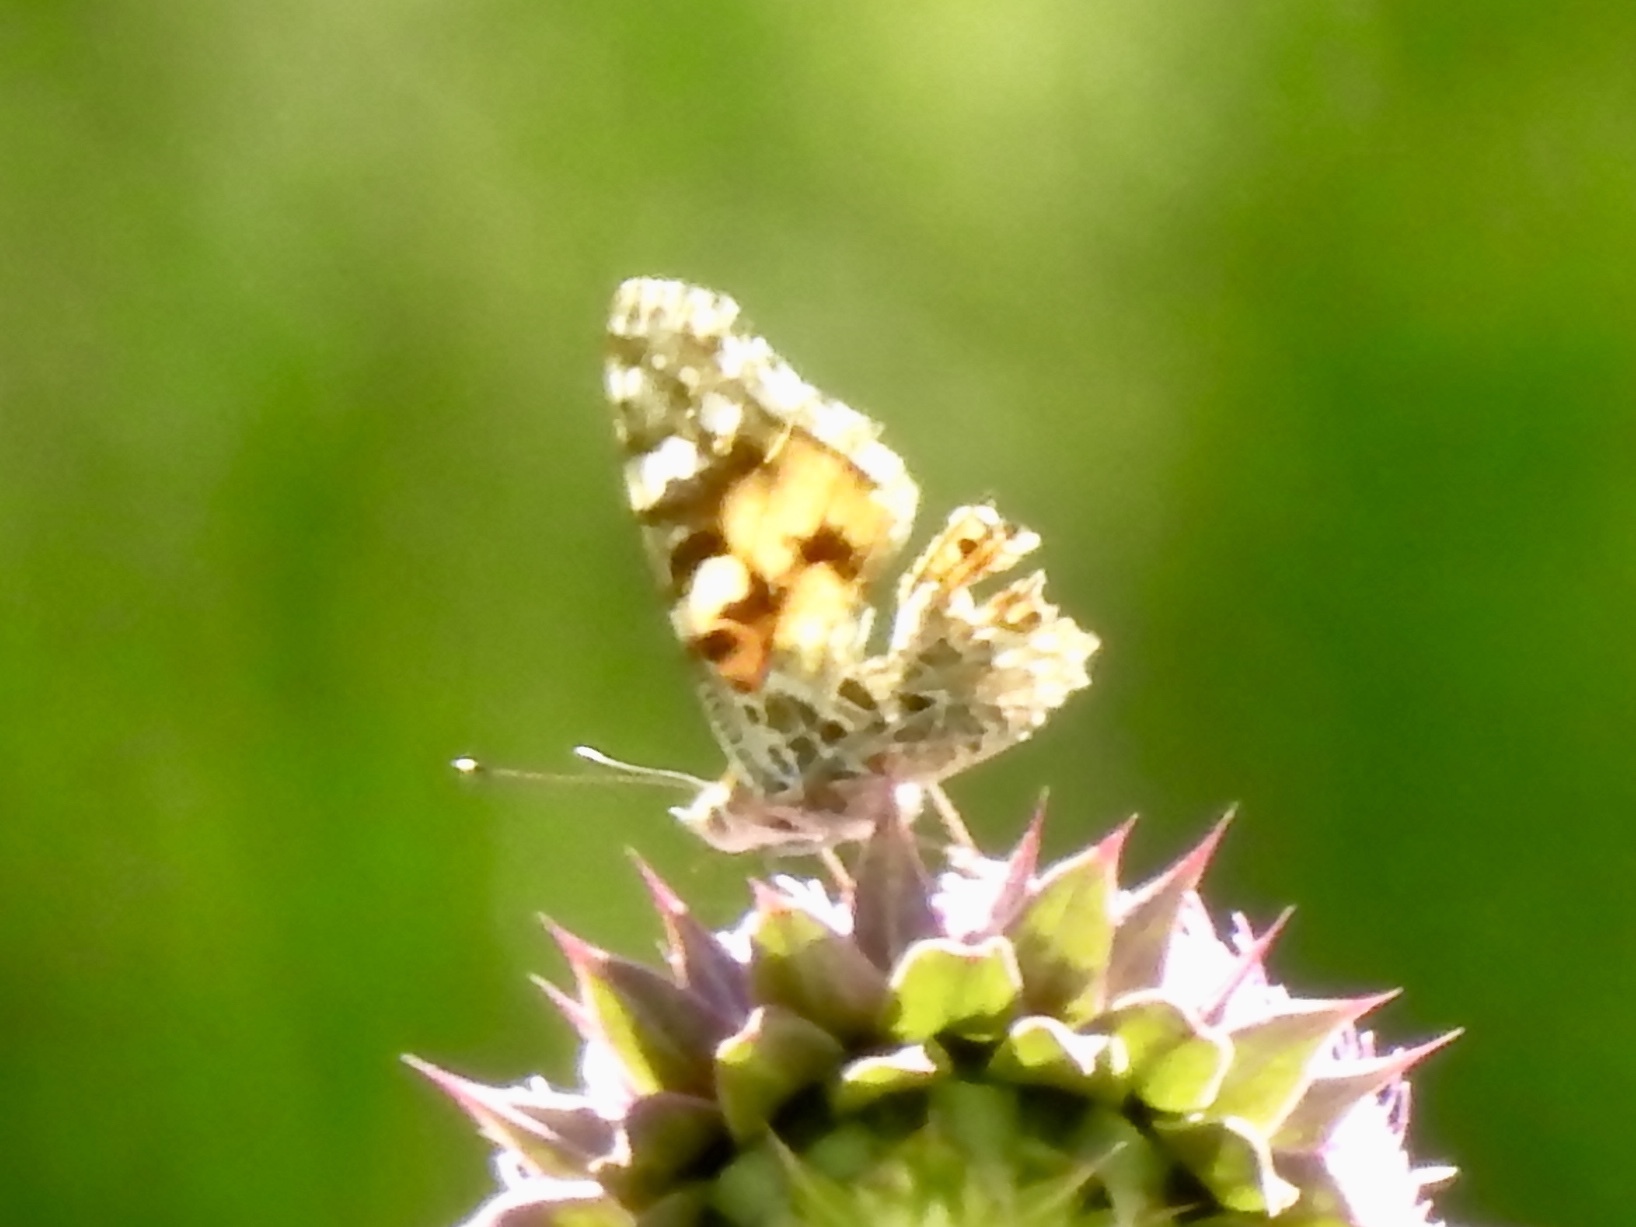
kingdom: Animalia
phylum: Arthropoda
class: Insecta
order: Lepidoptera
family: Nymphalidae
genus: Vanessa
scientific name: Vanessa cardui
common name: Painted lady
